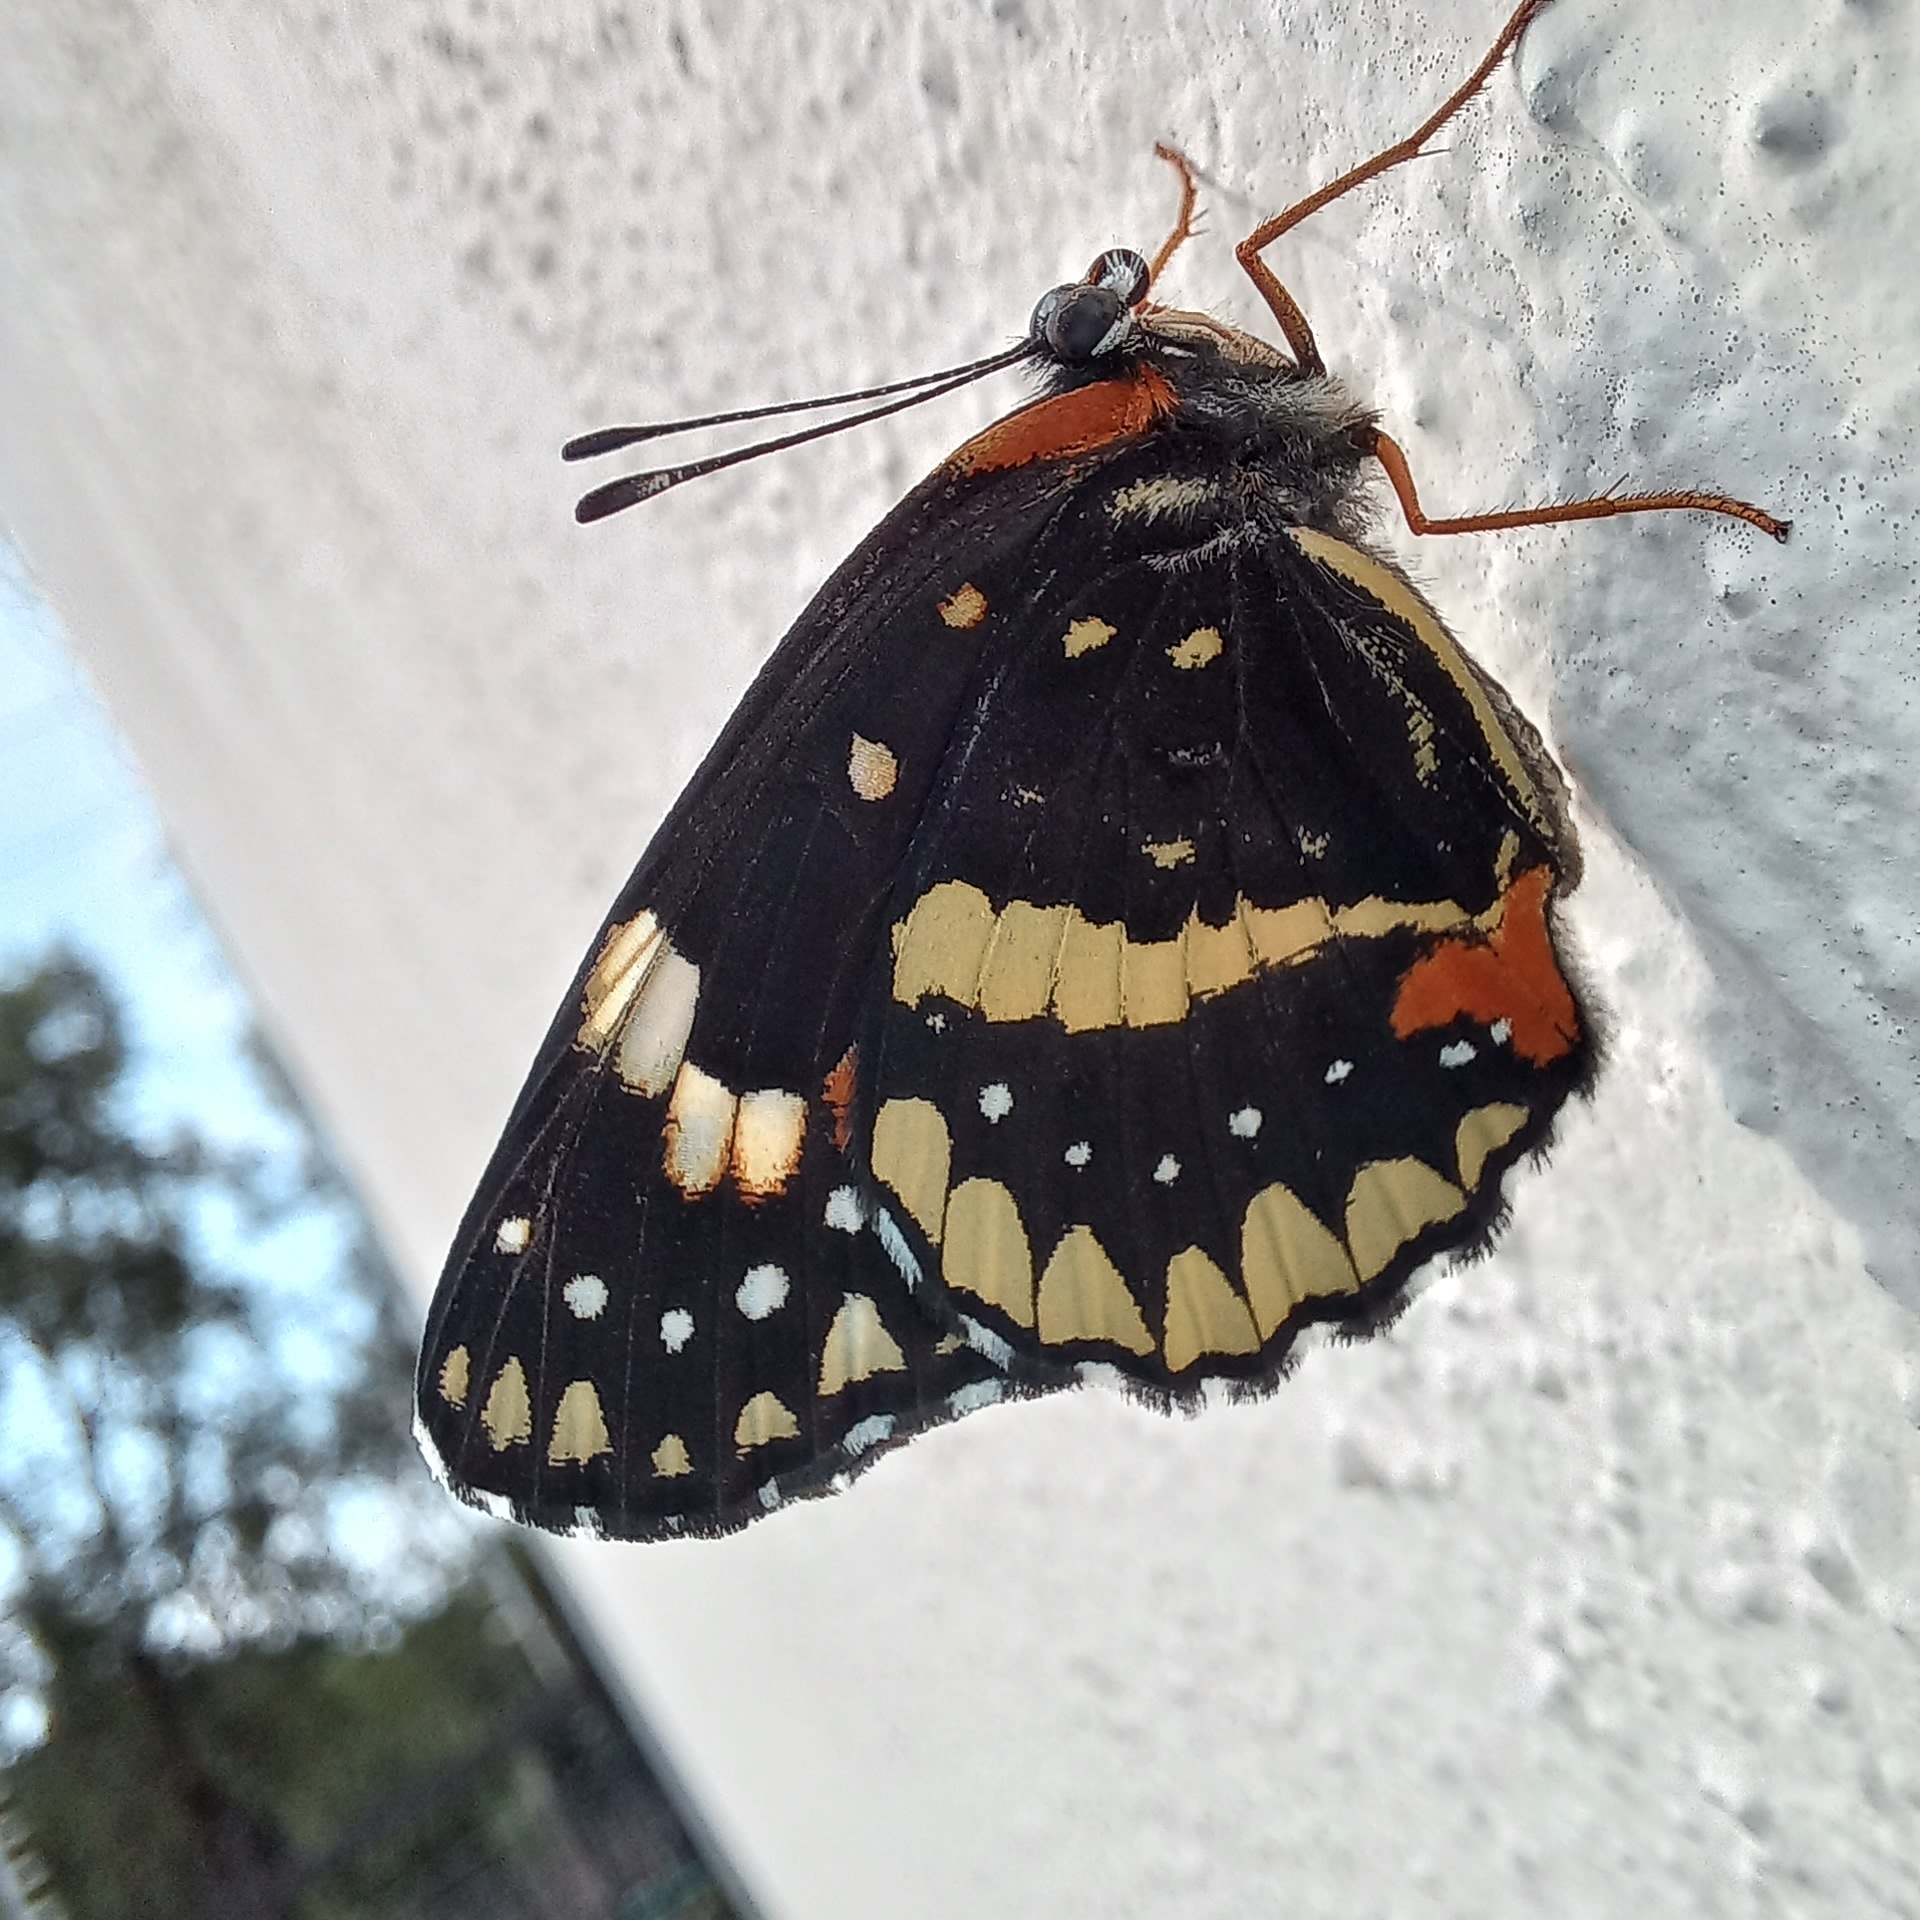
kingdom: Animalia
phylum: Arthropoda
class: Insecta
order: Lepidoptera
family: Nymphalidae
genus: Chlosyne
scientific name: Chlosyne lacinia
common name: Bordered patch
